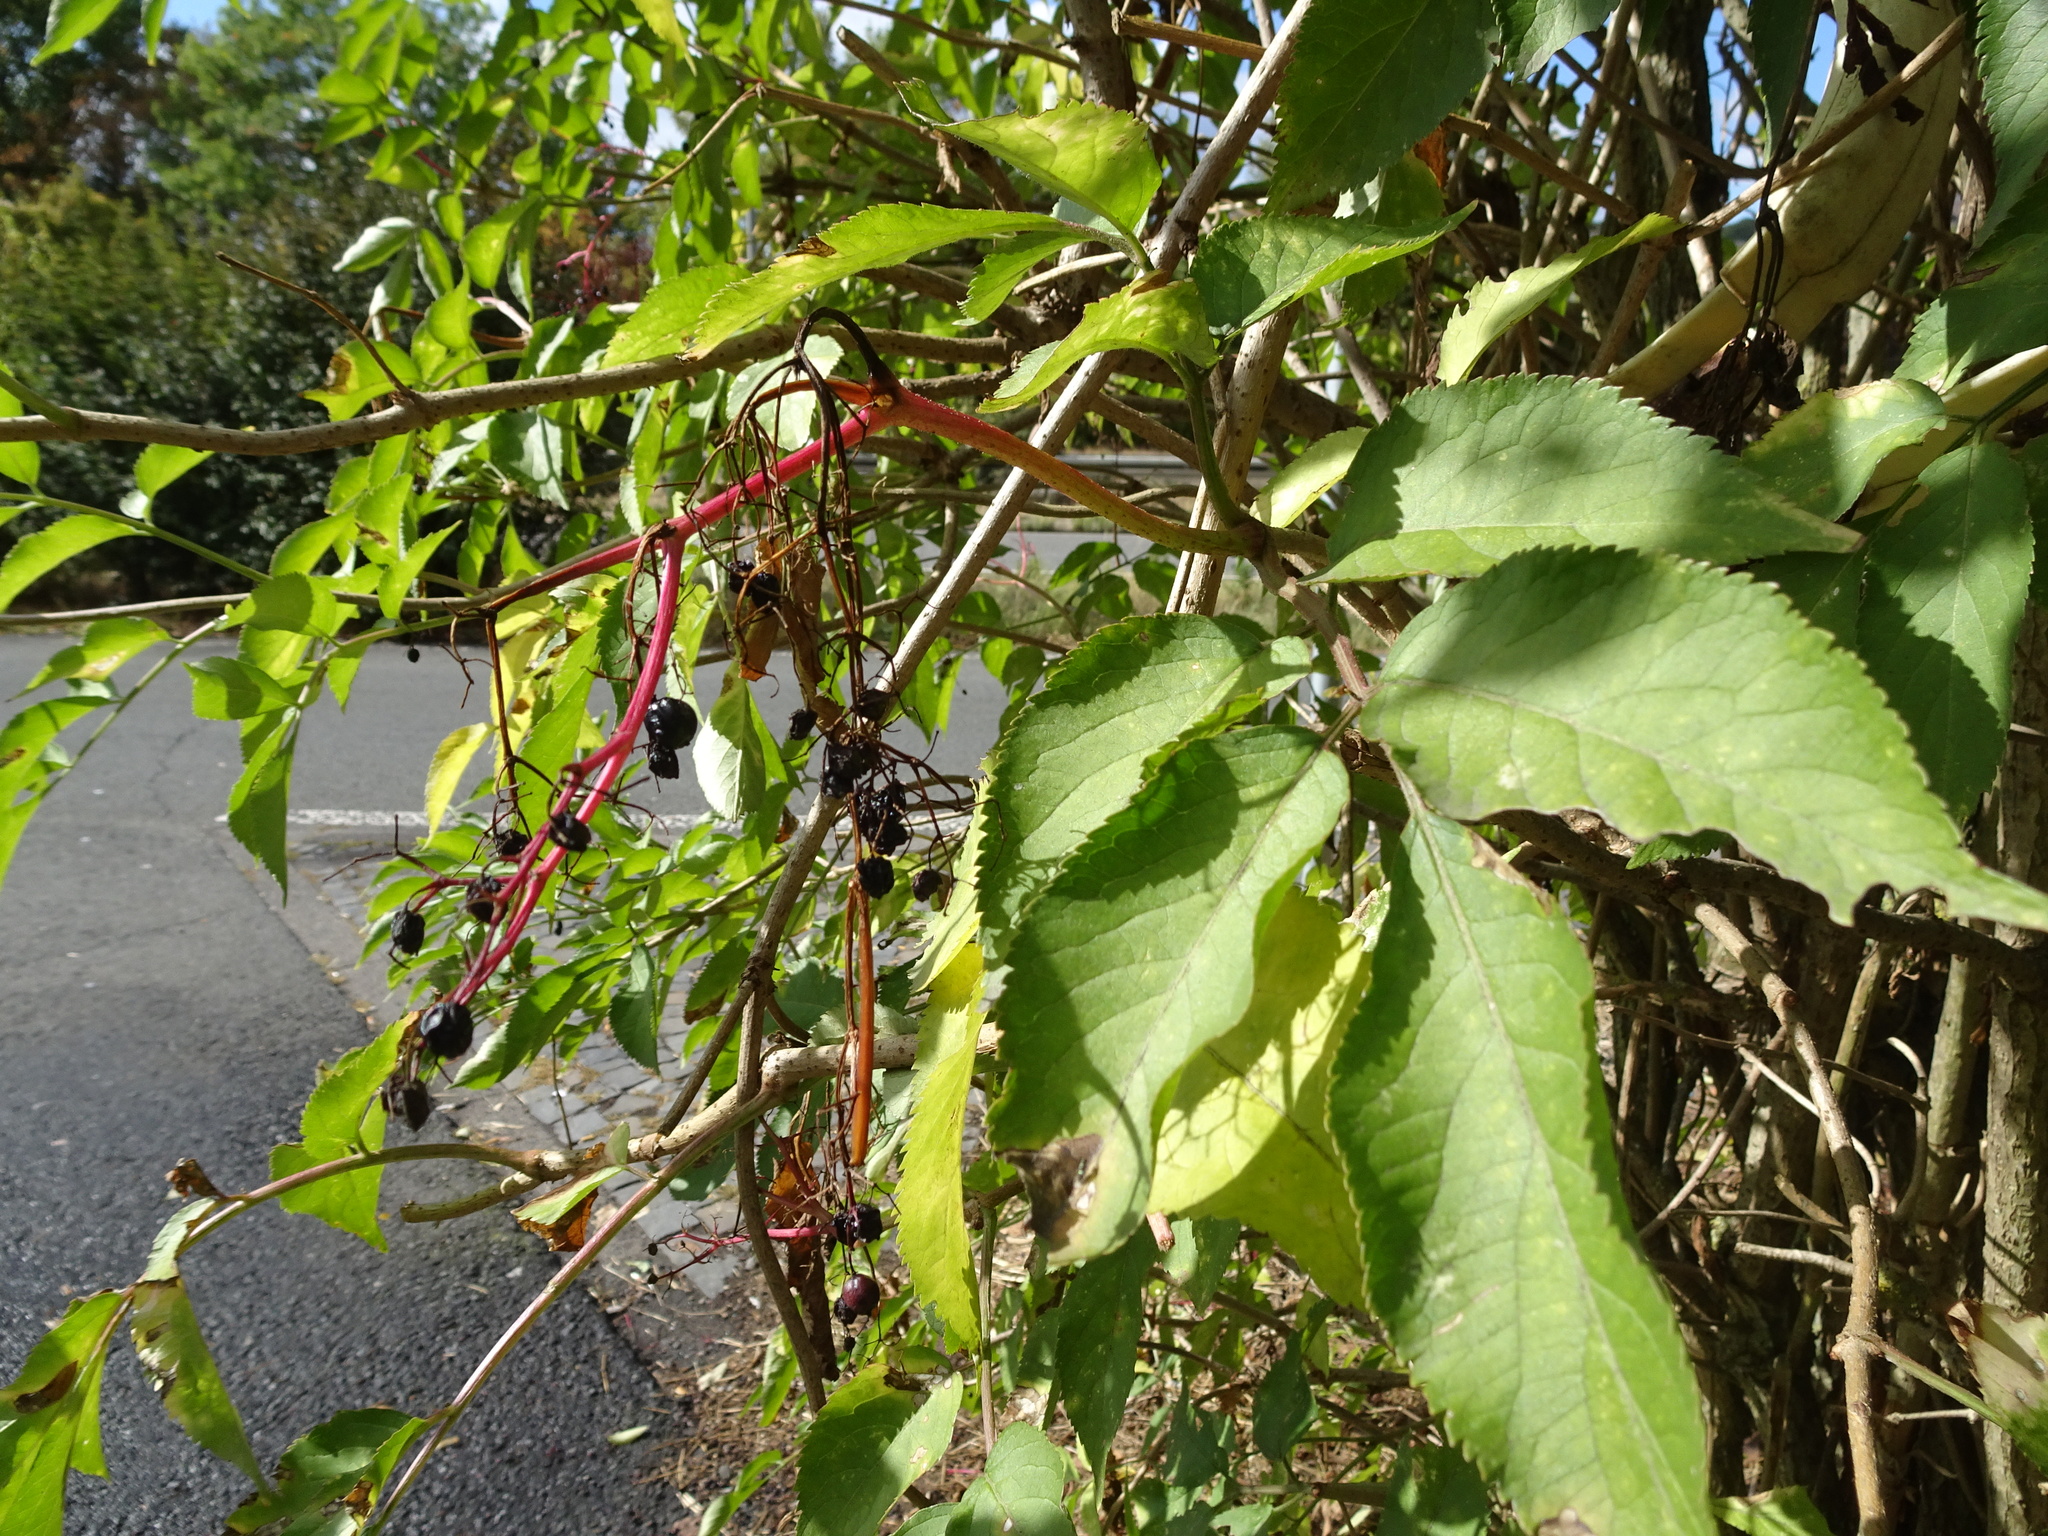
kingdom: Plantae
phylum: Tracheophyta
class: Magnoliopsida
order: Dipsacales
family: Viburnaceae
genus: Sambucus
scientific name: Sambucus nigra
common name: Elder
